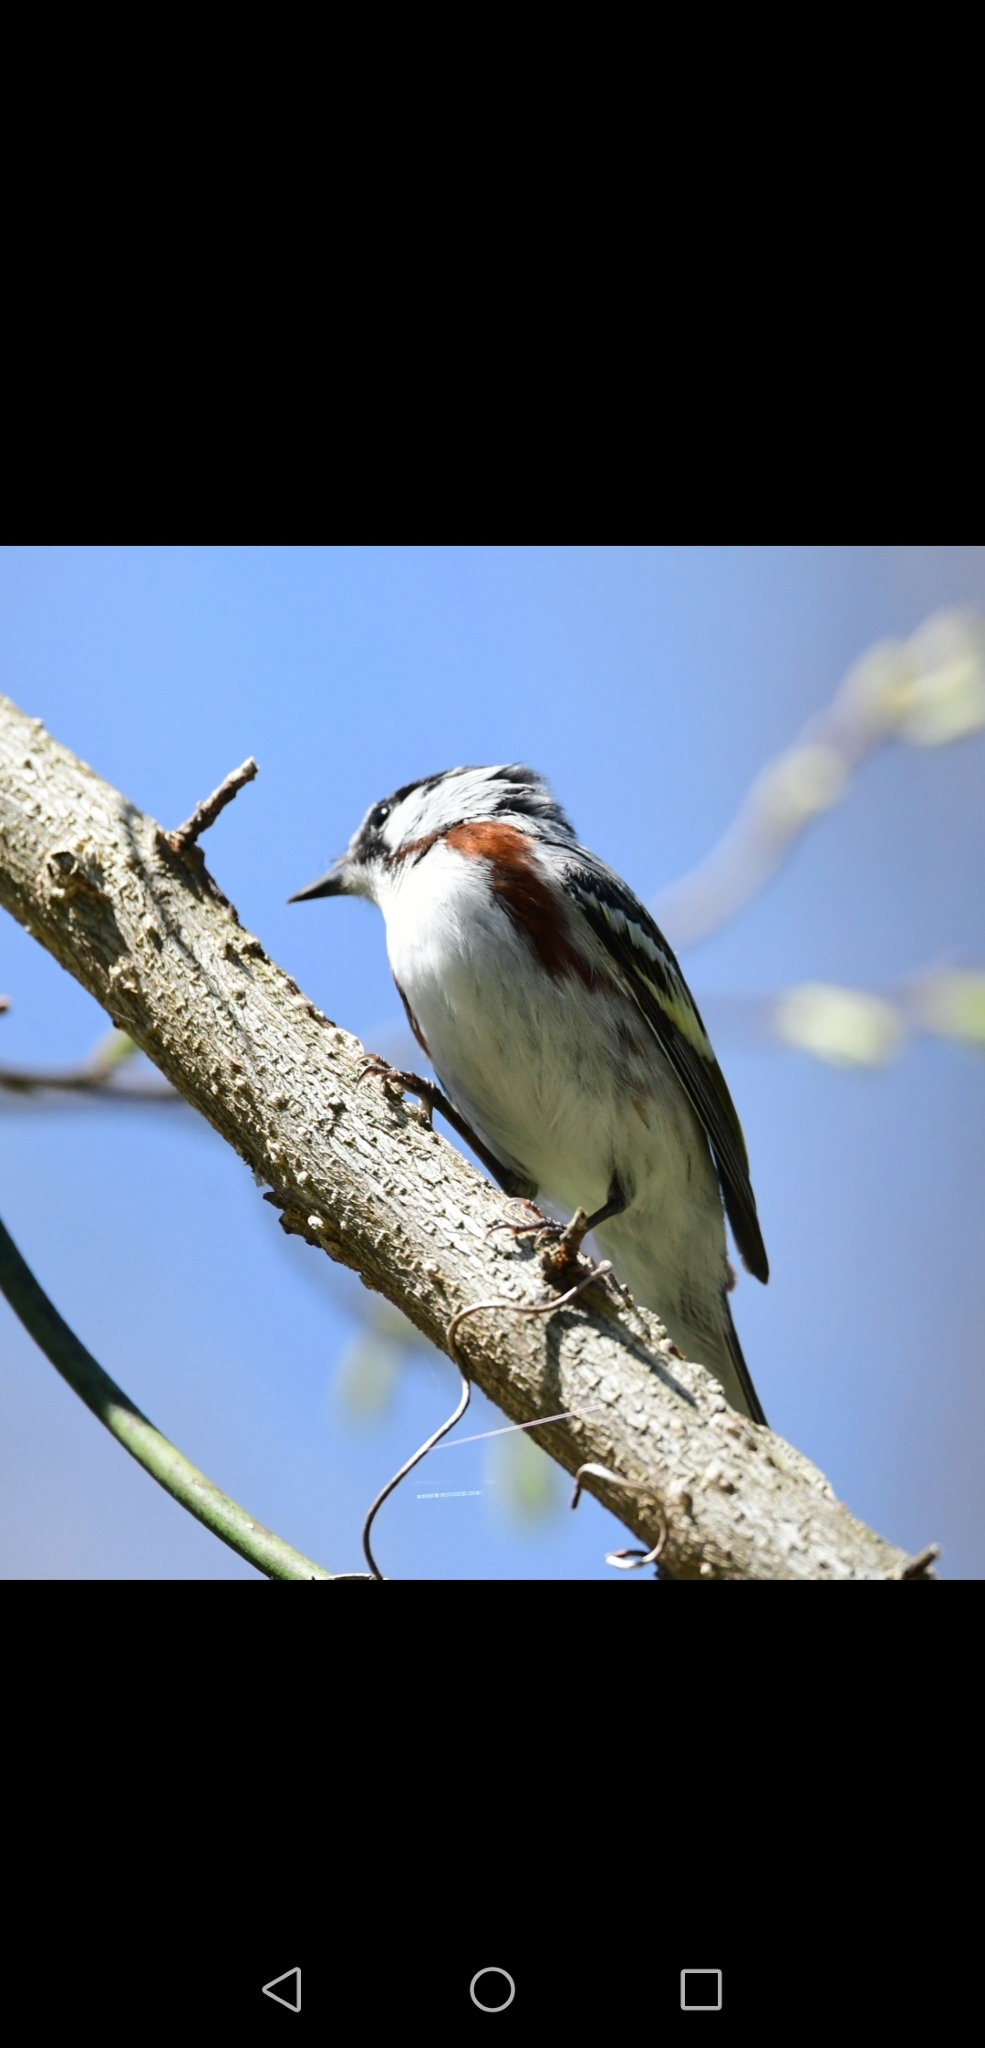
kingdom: Animalia
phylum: Chordata
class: Aves
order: Passeriformes
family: Parulidae
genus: Setophaga
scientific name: Setophaga pensylvanica
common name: Chestnut-sided warbler
